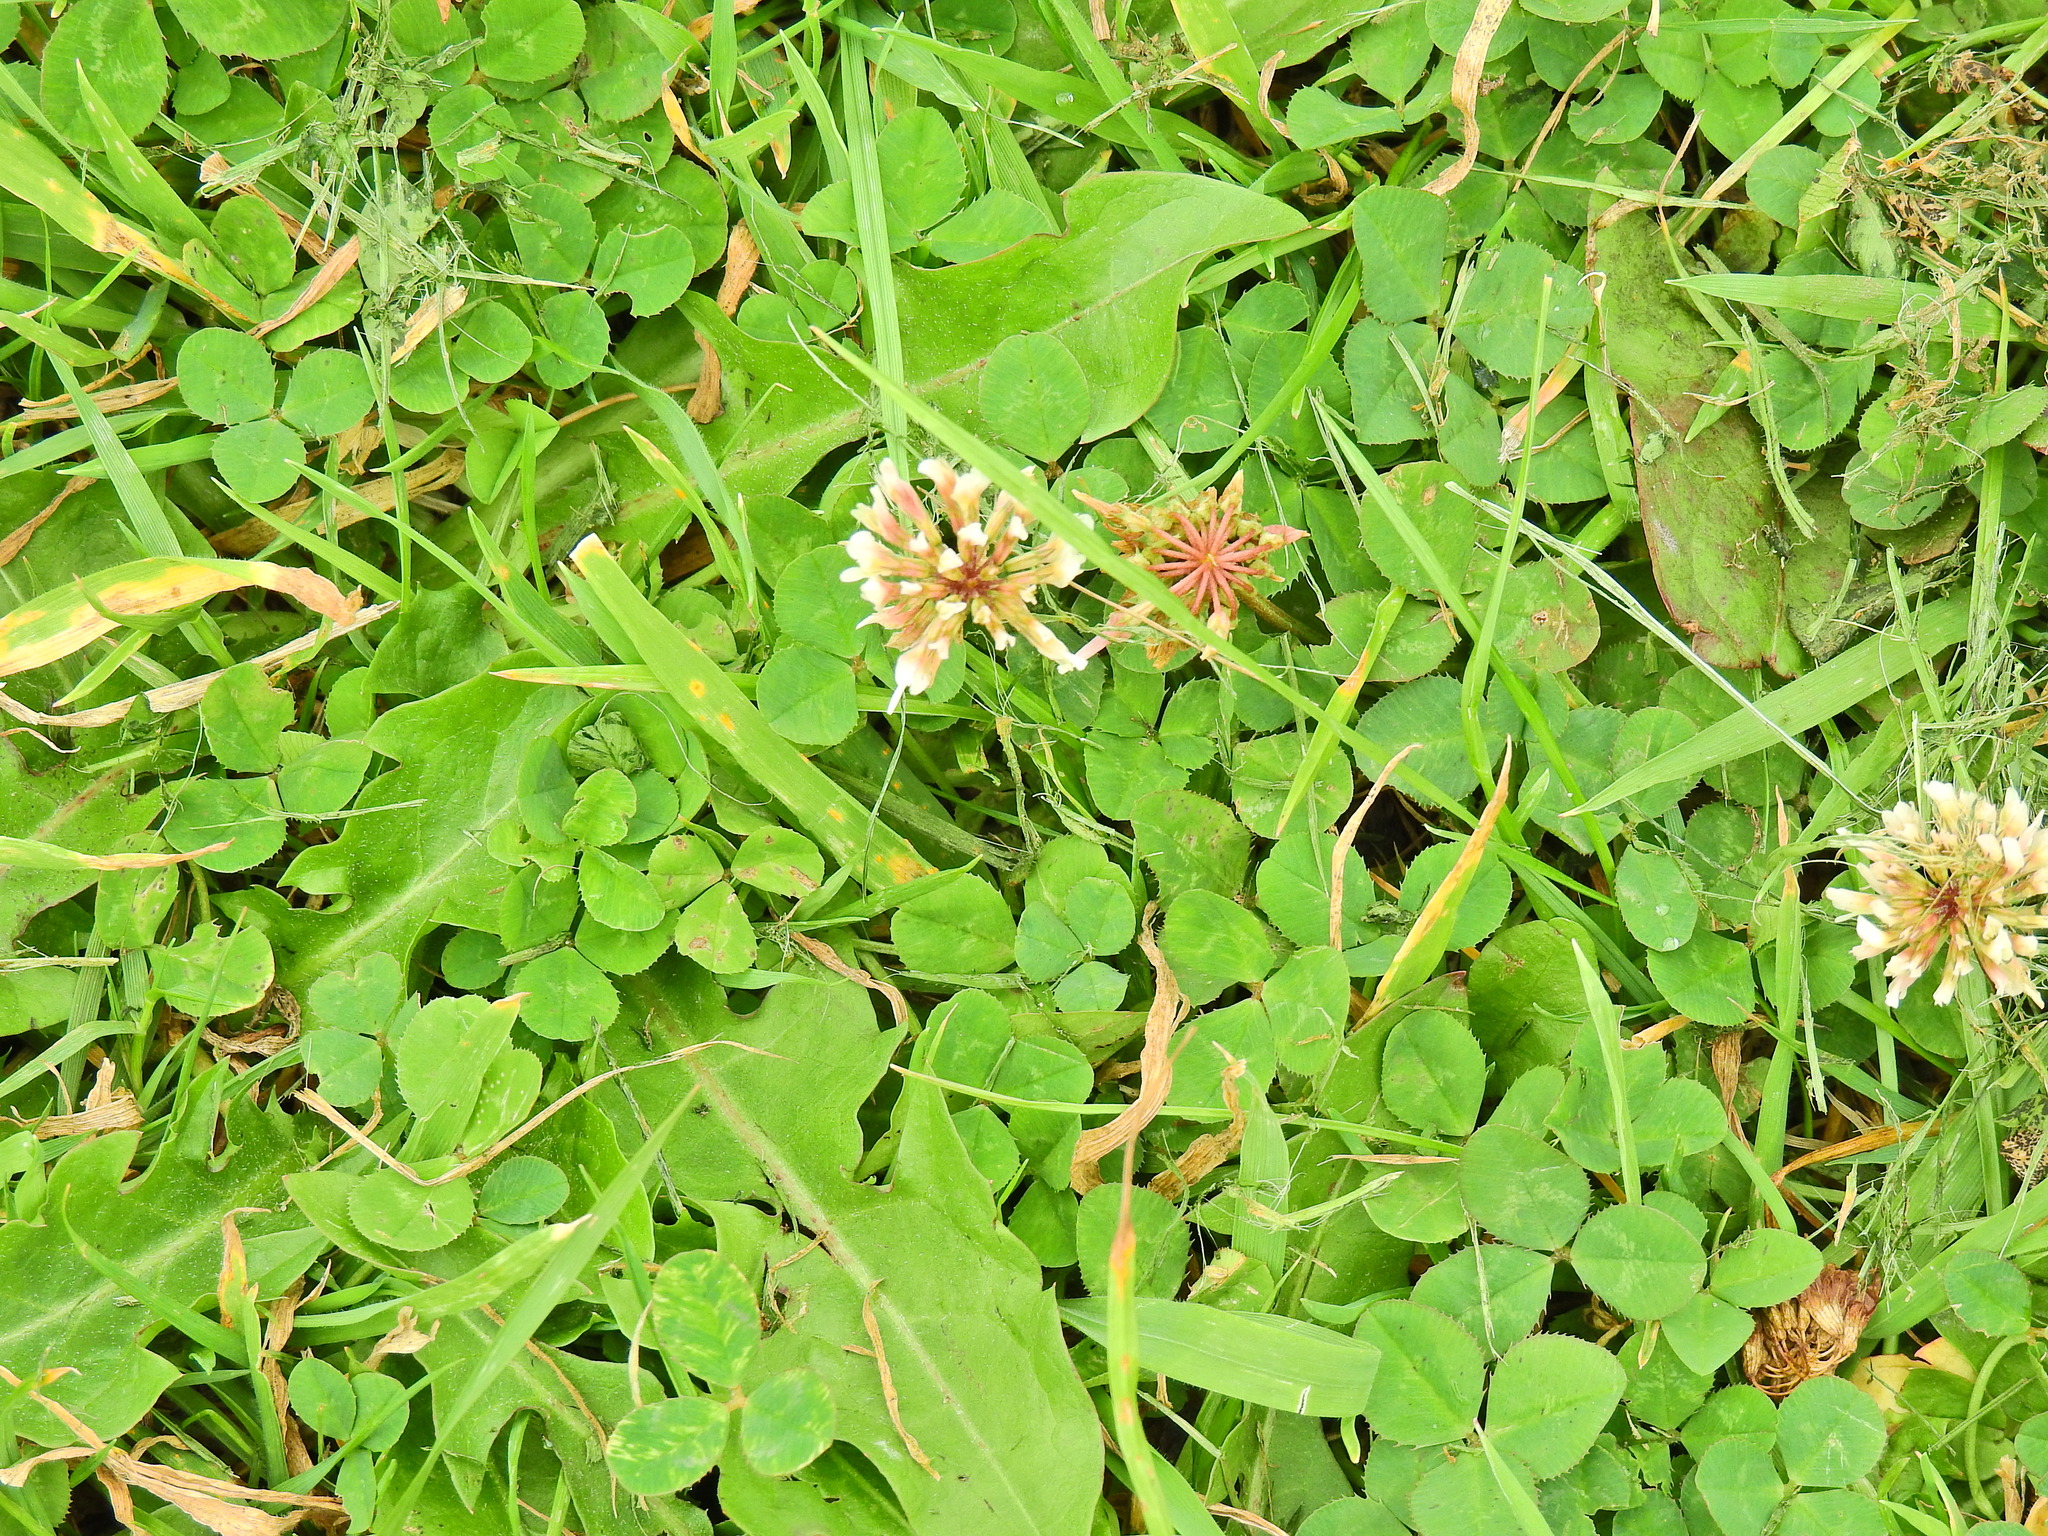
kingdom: Plantae
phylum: Tracheophyta
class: Magnoliopsida
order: Fabales
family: Fabaceae
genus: Trifolium
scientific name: Trifolium repens
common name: White clover
